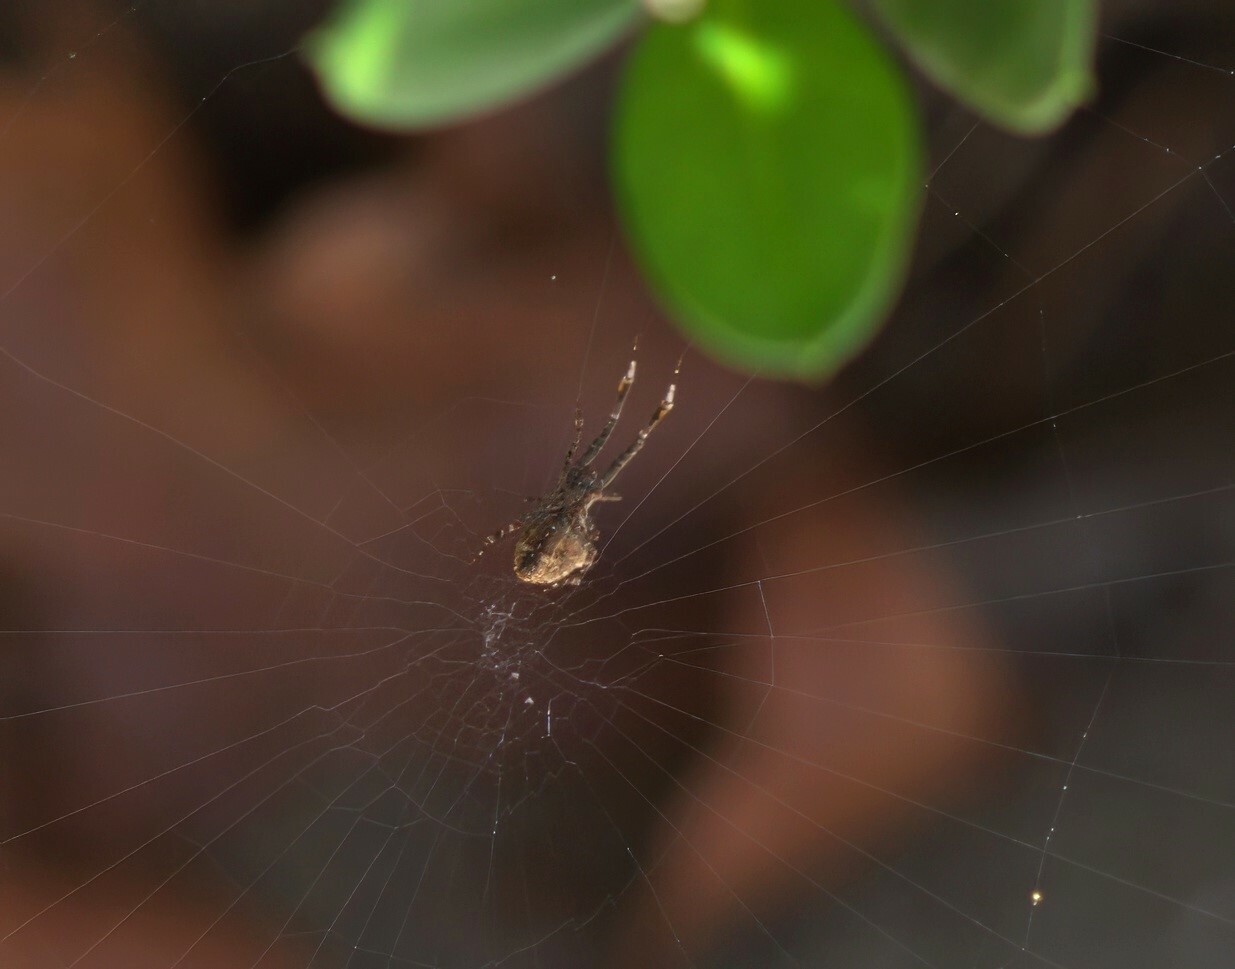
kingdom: Animalia
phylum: Arthropoda
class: Arachnida
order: Araneae
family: Uloboridae
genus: Uloborus
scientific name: Uloborus diversus
